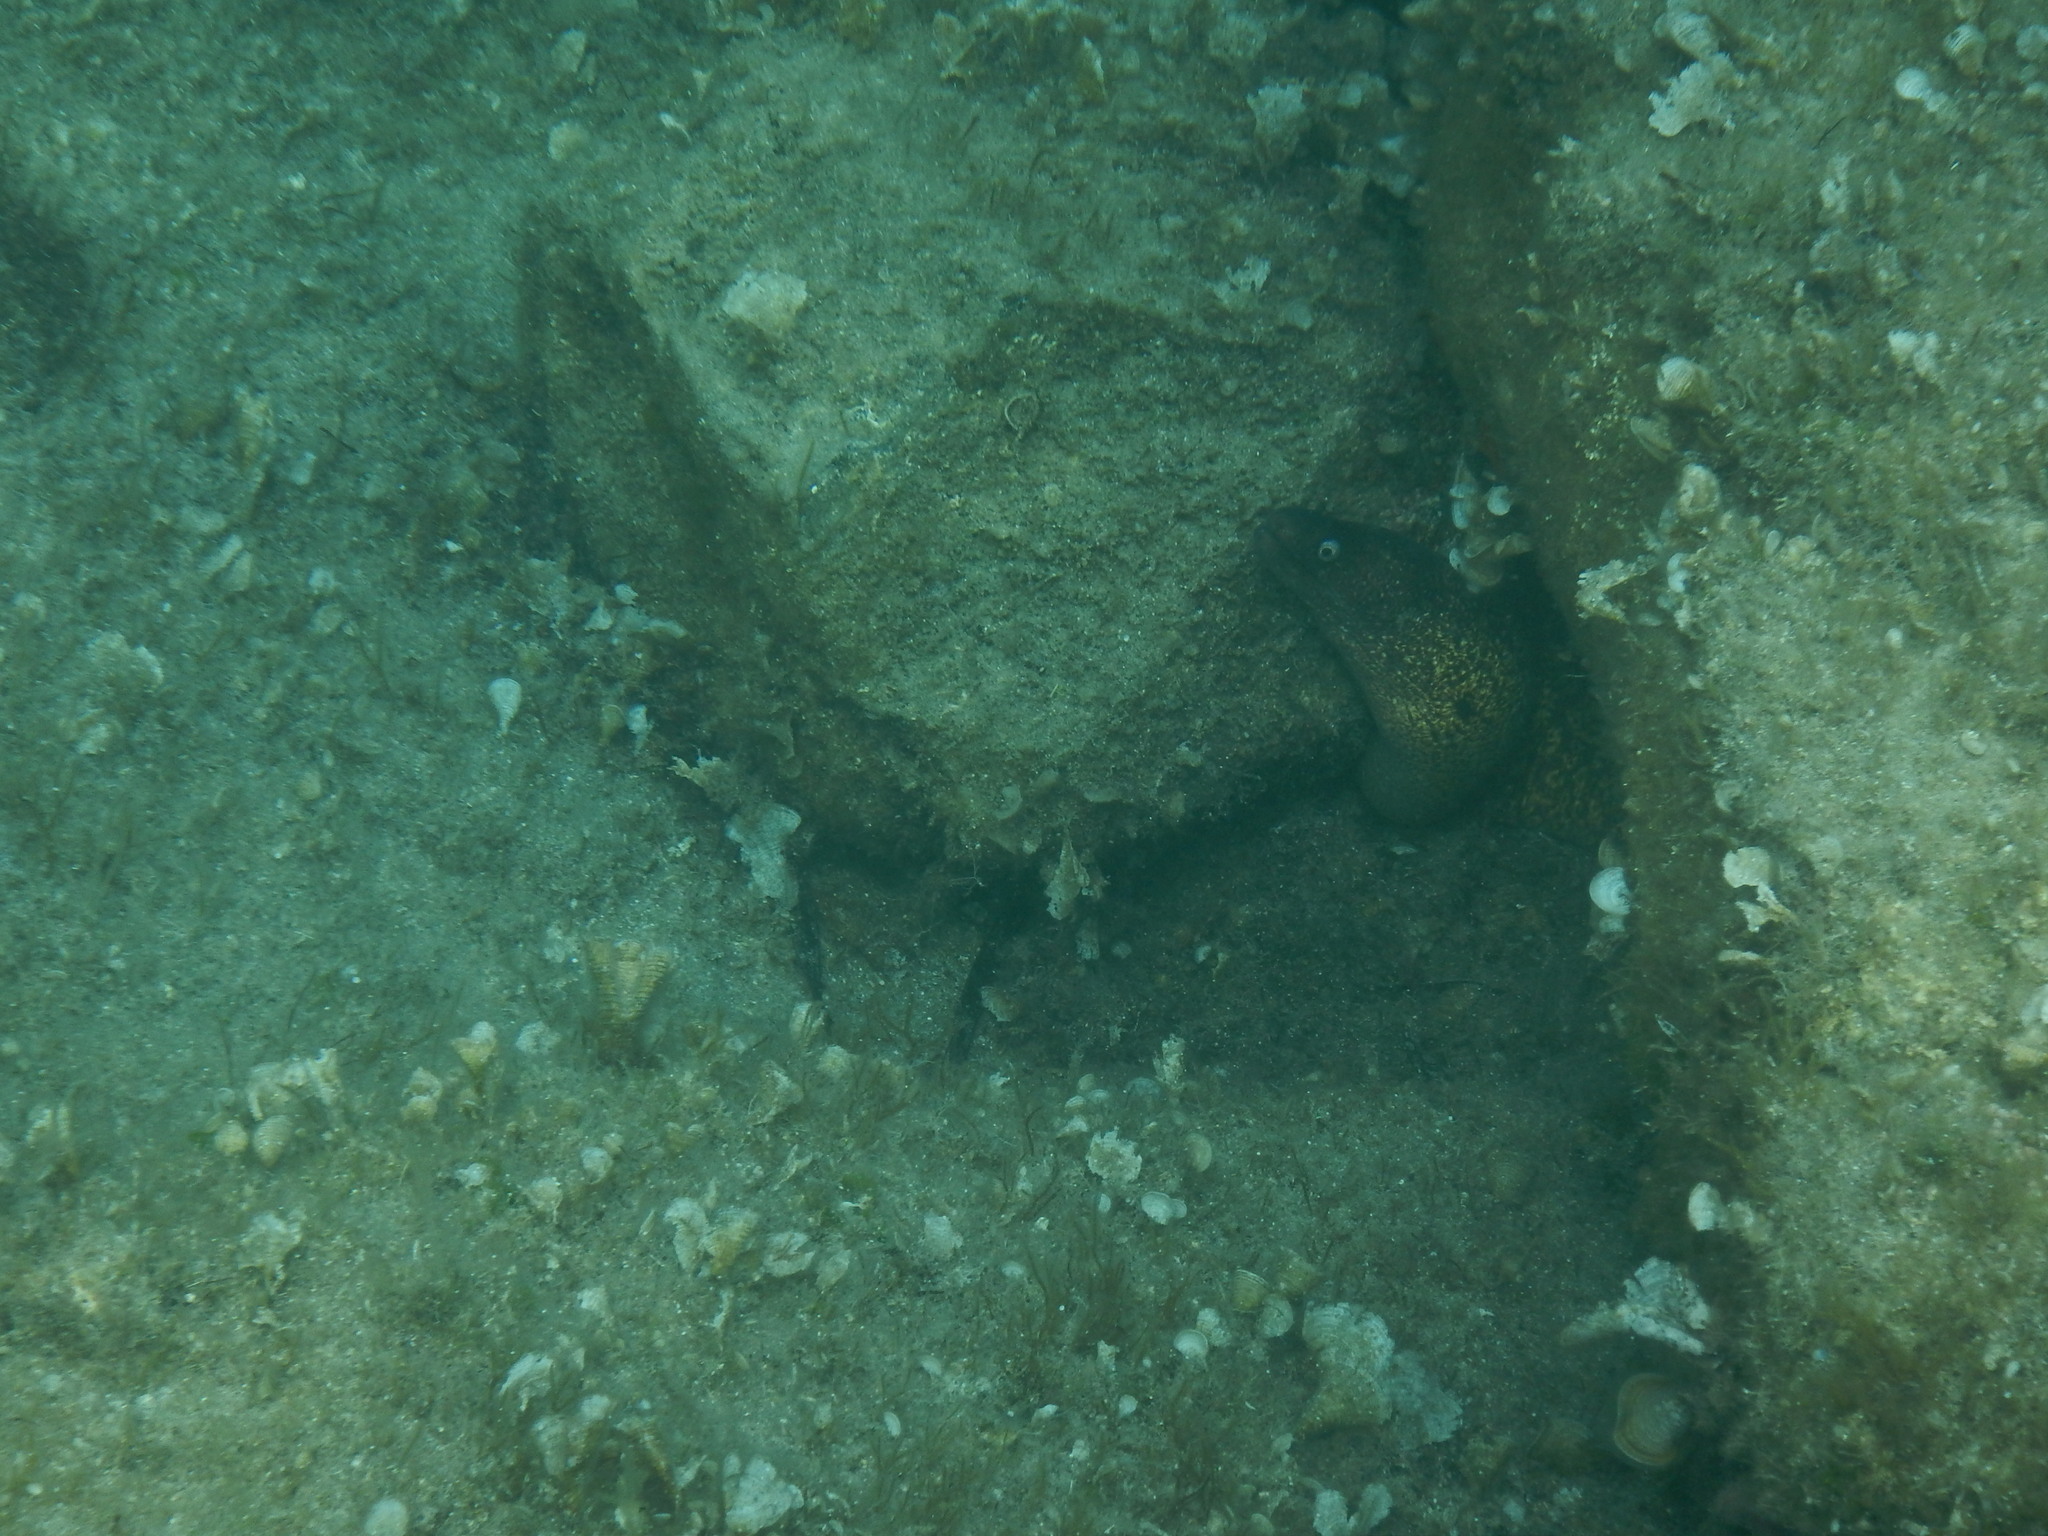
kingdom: Animalia
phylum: Chordata
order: Anguilliformes
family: Muraenidae
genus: Muraena
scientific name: Muraena helena
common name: Mediterranean moray
